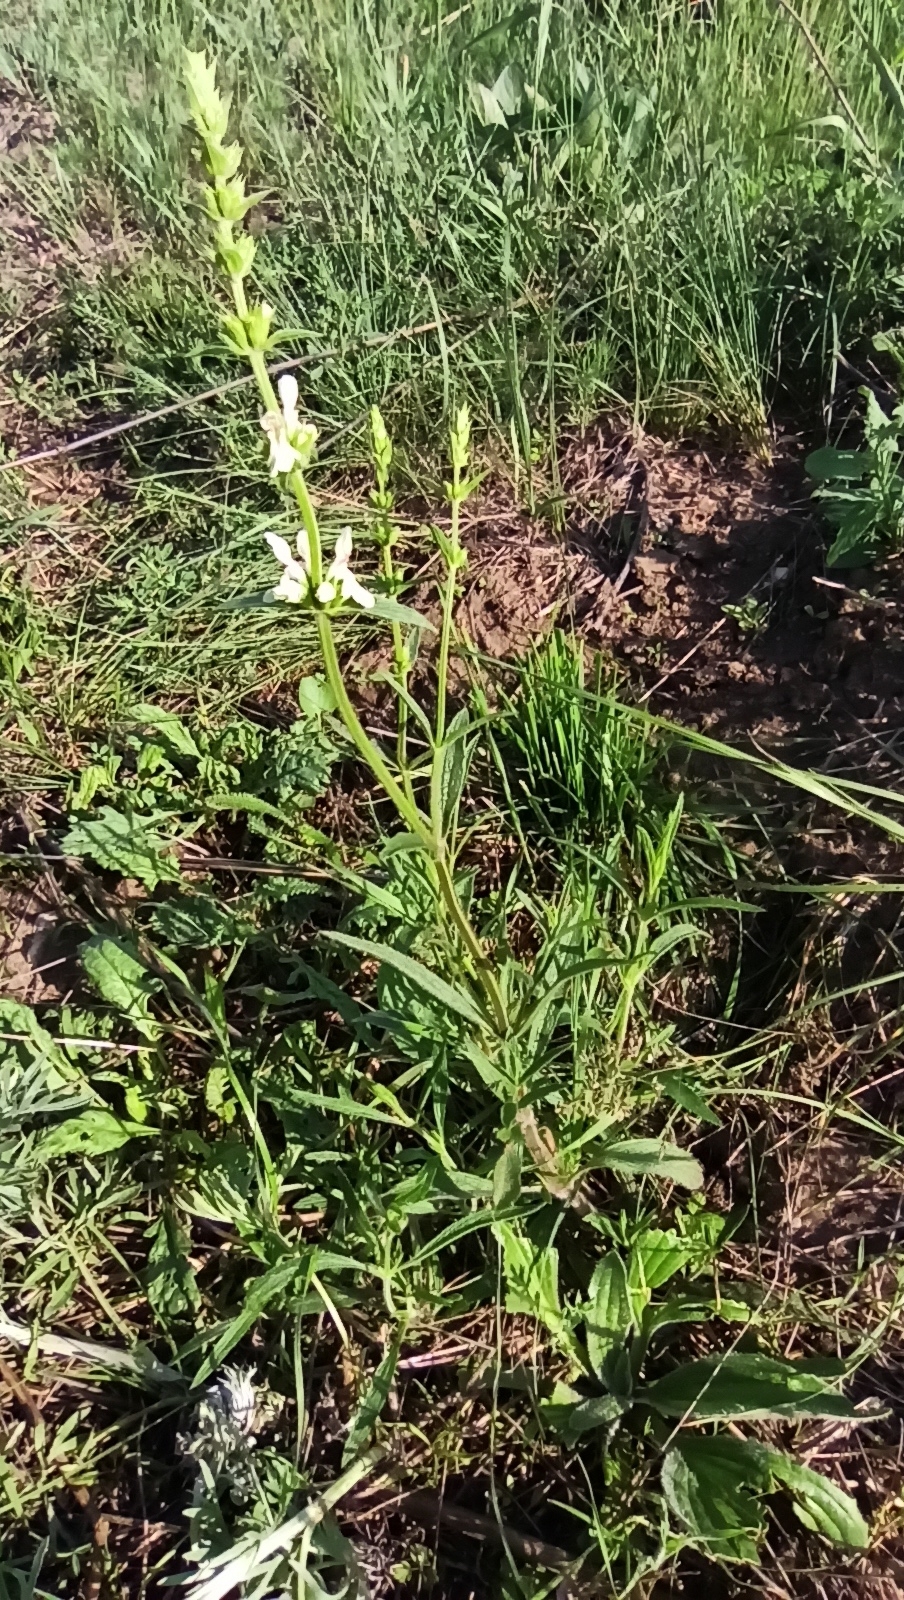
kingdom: Plantae
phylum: Tracheophyta
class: Magnoliopsida
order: Lamiales
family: Lamiaceae
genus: Stachys
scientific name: Stachys recta
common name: Perennial yellow-woundwort
